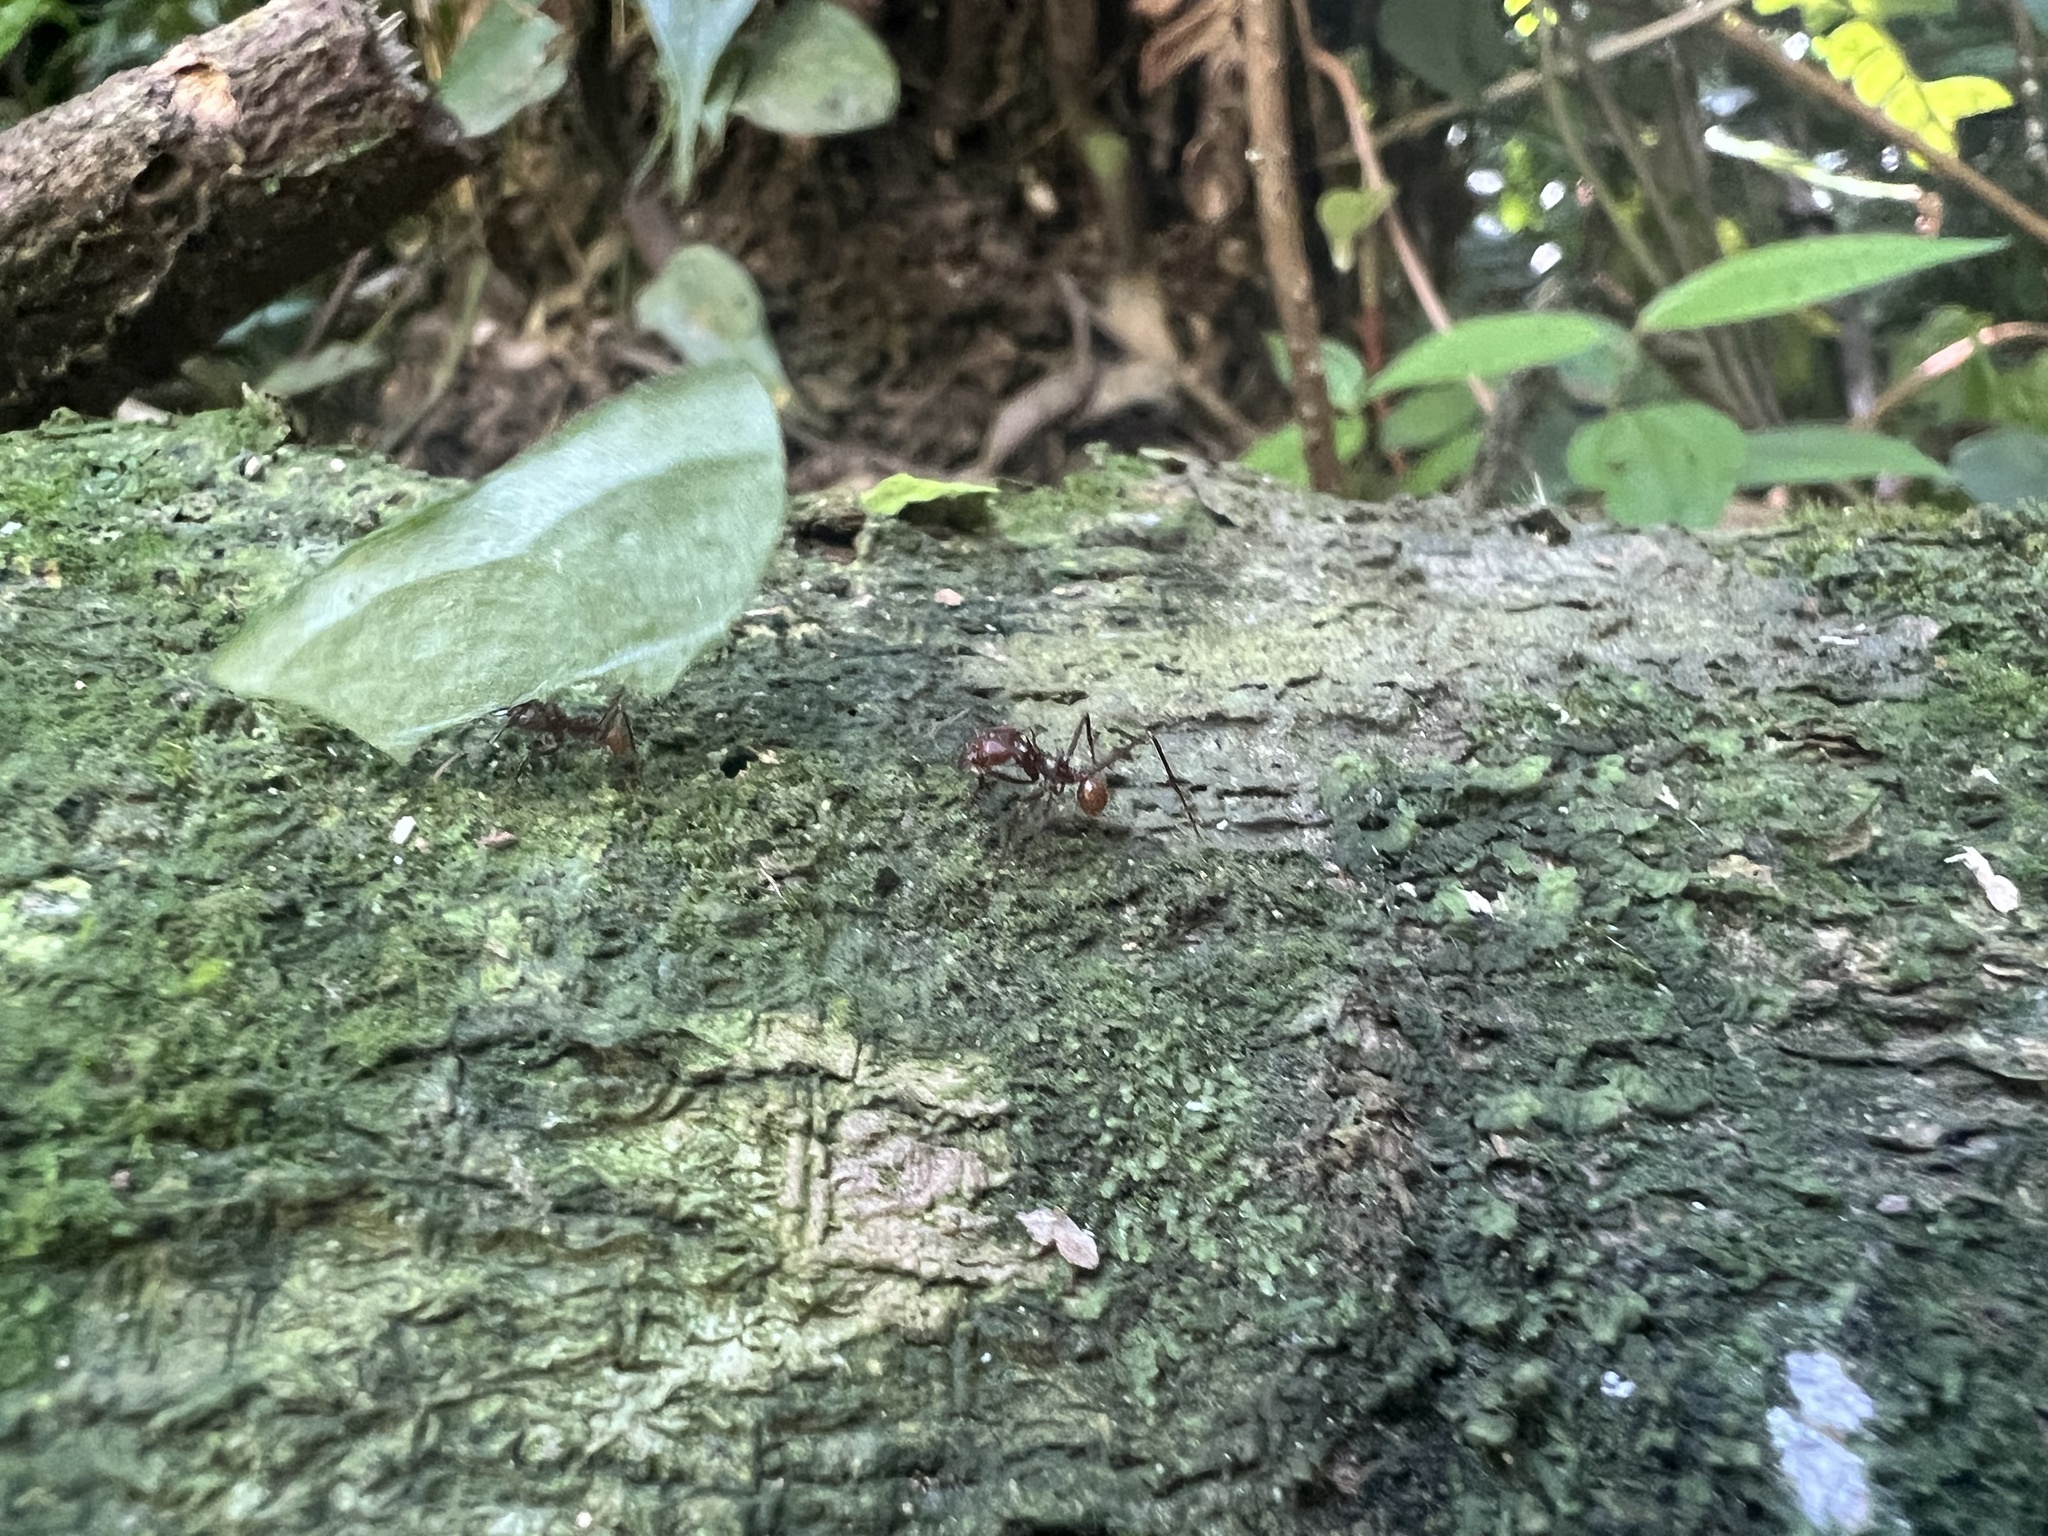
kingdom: Animalia
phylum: Arthropoda
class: Insecta
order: Hymenoptera
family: Formicidae
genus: Atta
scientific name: Atta cephalotes
